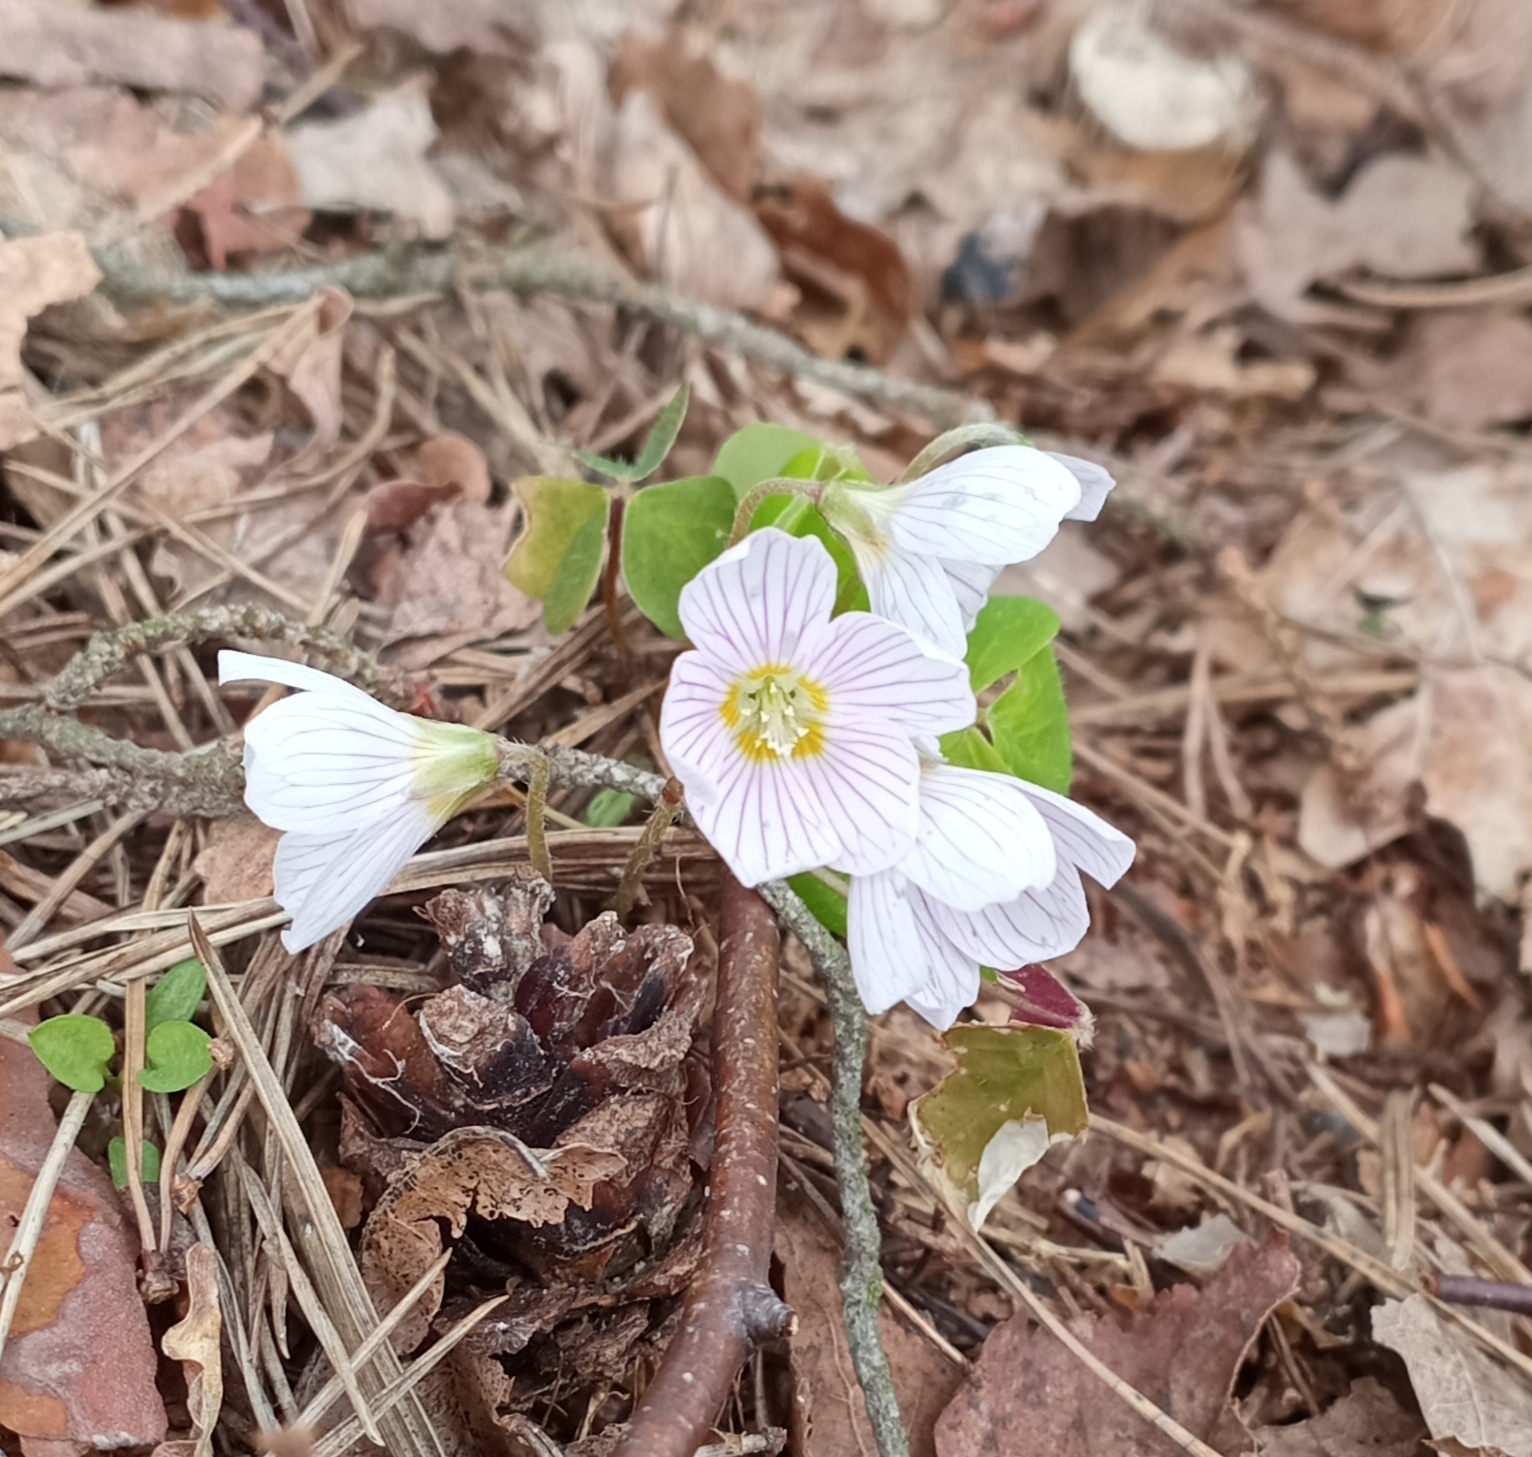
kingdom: Plantae
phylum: Tracheophyta
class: Magnoliopsida
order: Oxalidales
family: Oxalidaceae
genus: Oxalis
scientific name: Oxalis acetosella
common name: Wood-sorrel
